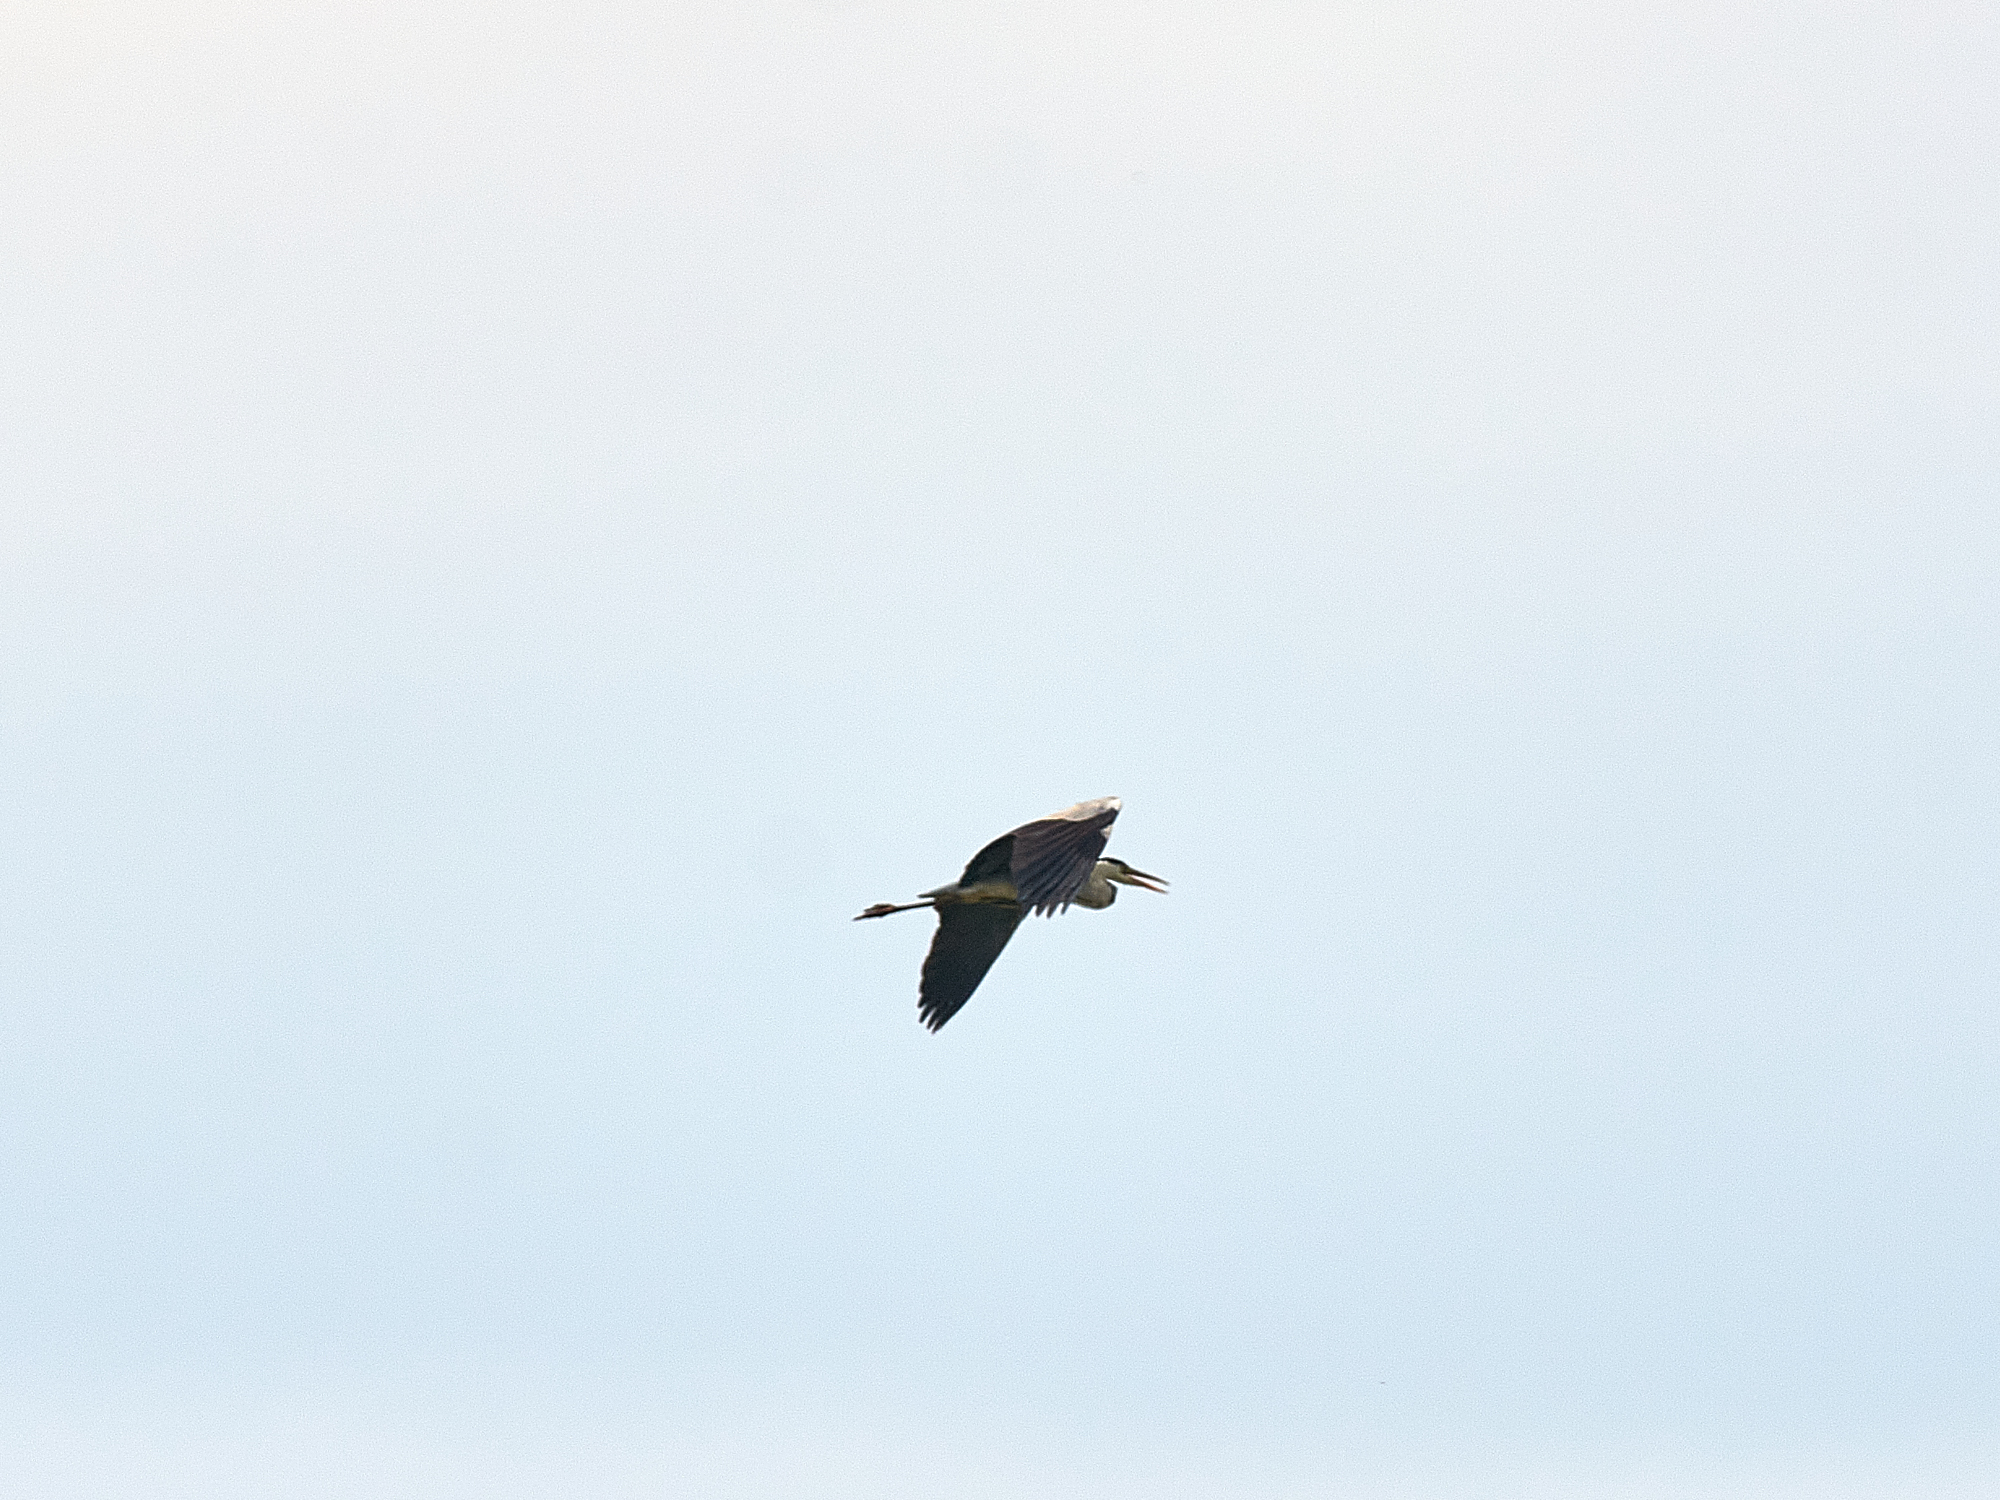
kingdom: Animalia
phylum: Chordata
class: Aves
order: Pelecaniformes
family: Ardeidae
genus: Ardea
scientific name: Ardea cinerea
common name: Grey heron
